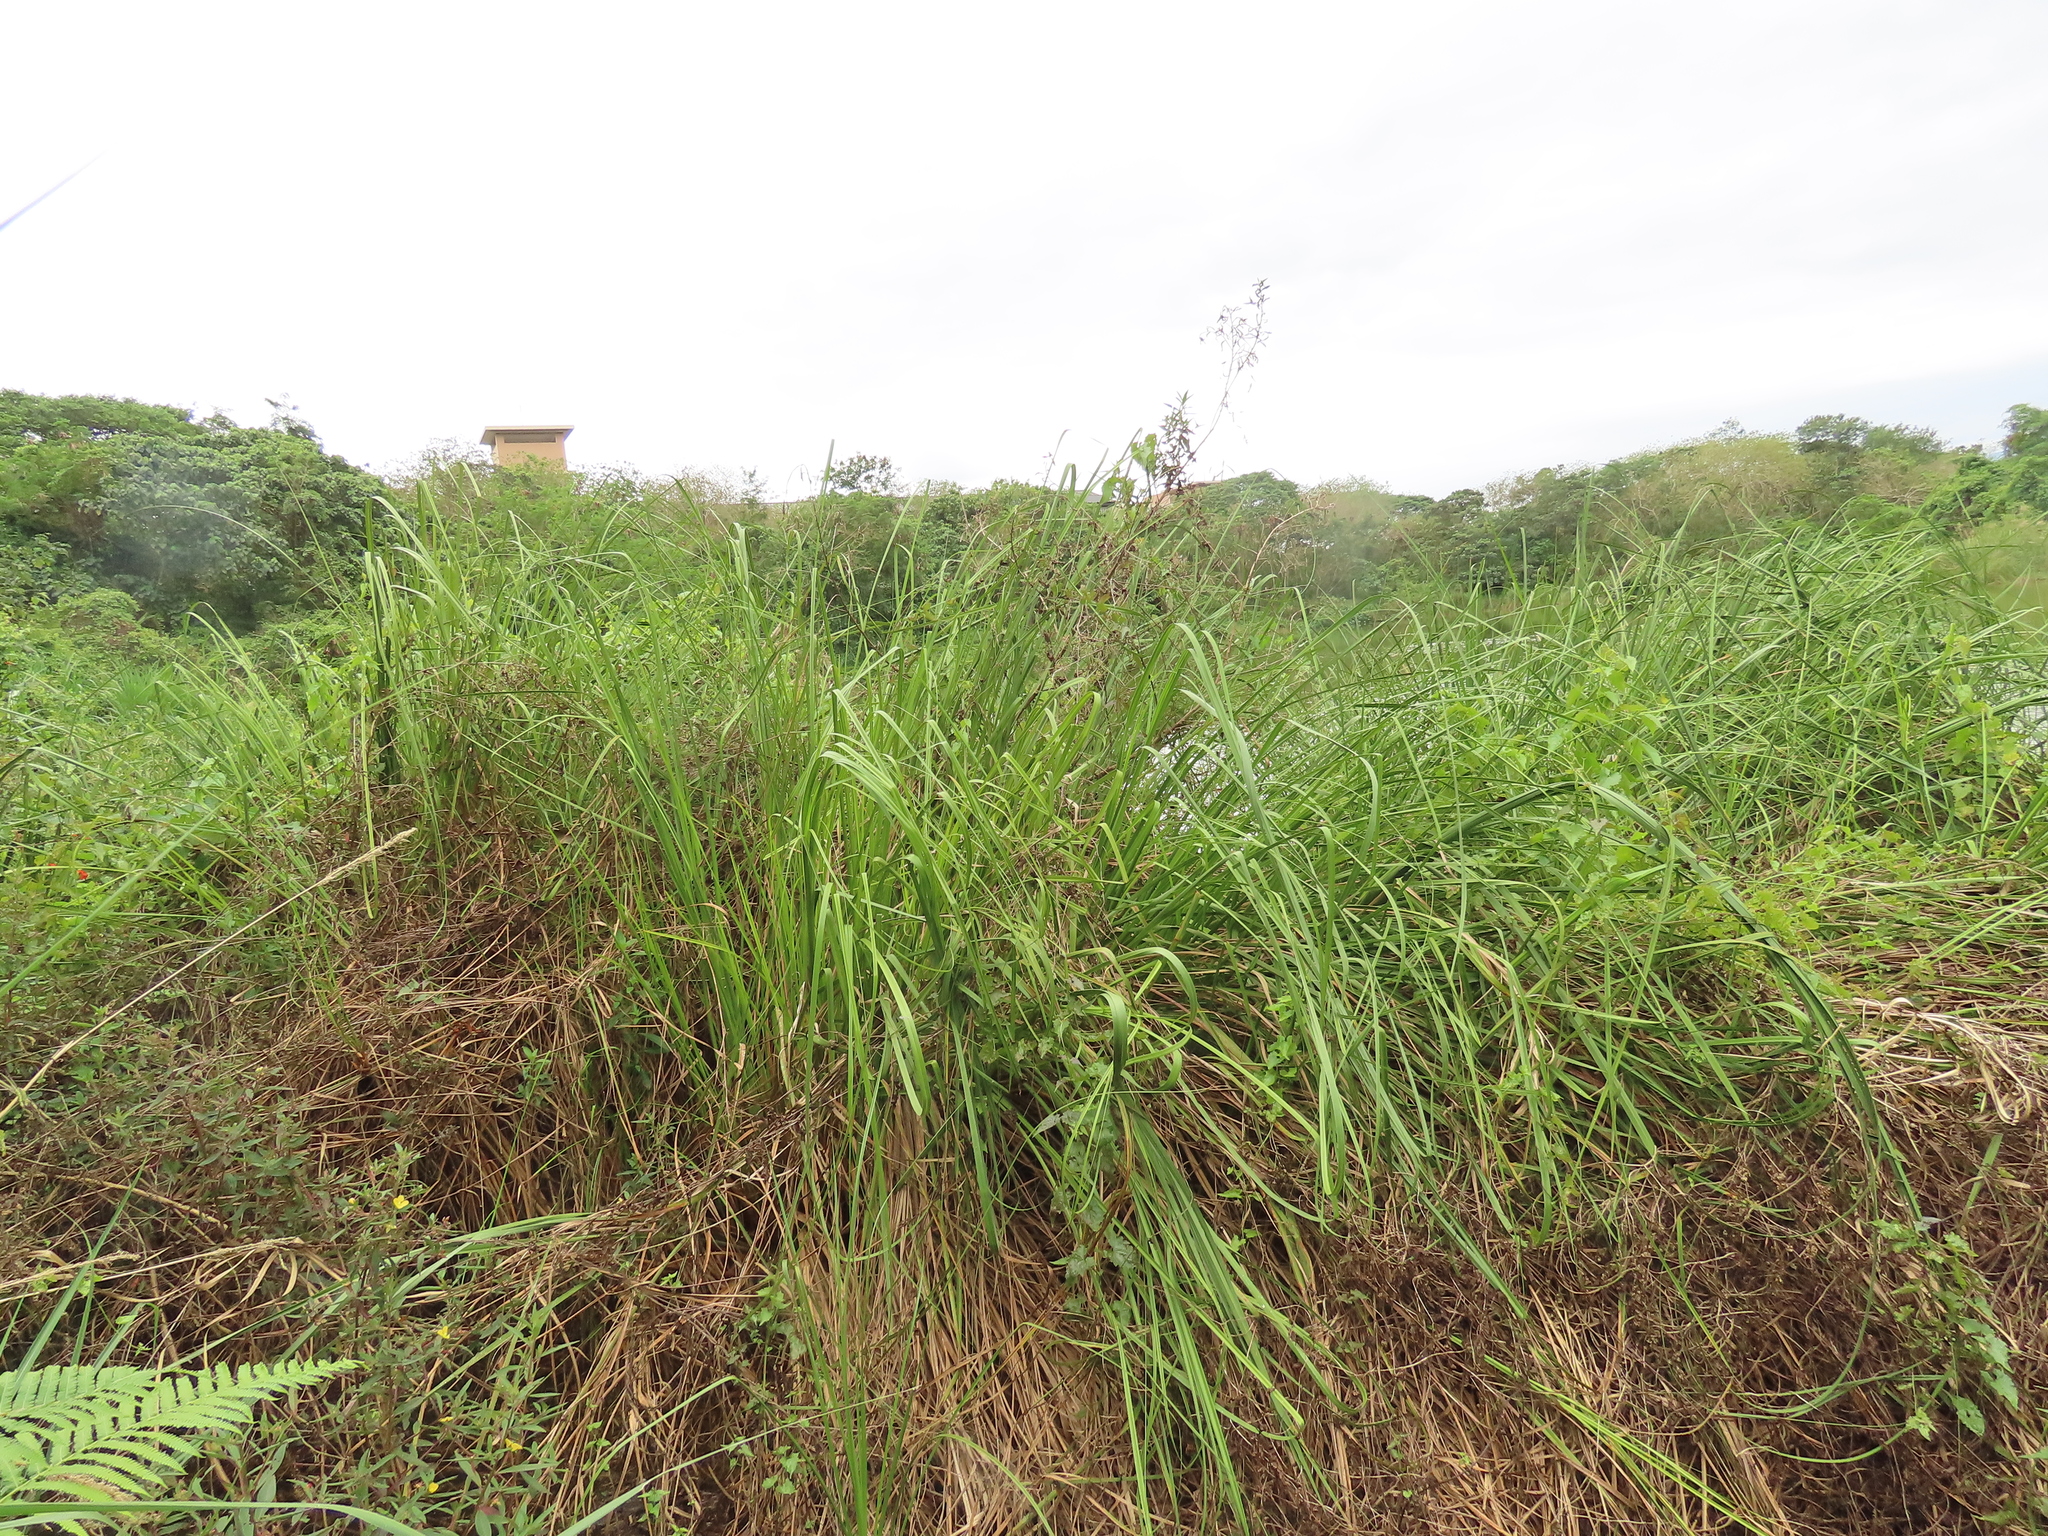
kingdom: Plantae
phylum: Tracheophyta
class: Liliopsida
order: Poales
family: Cyperaceae
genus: Cladium
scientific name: Cladium mariscus
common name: Great fen-sedge
